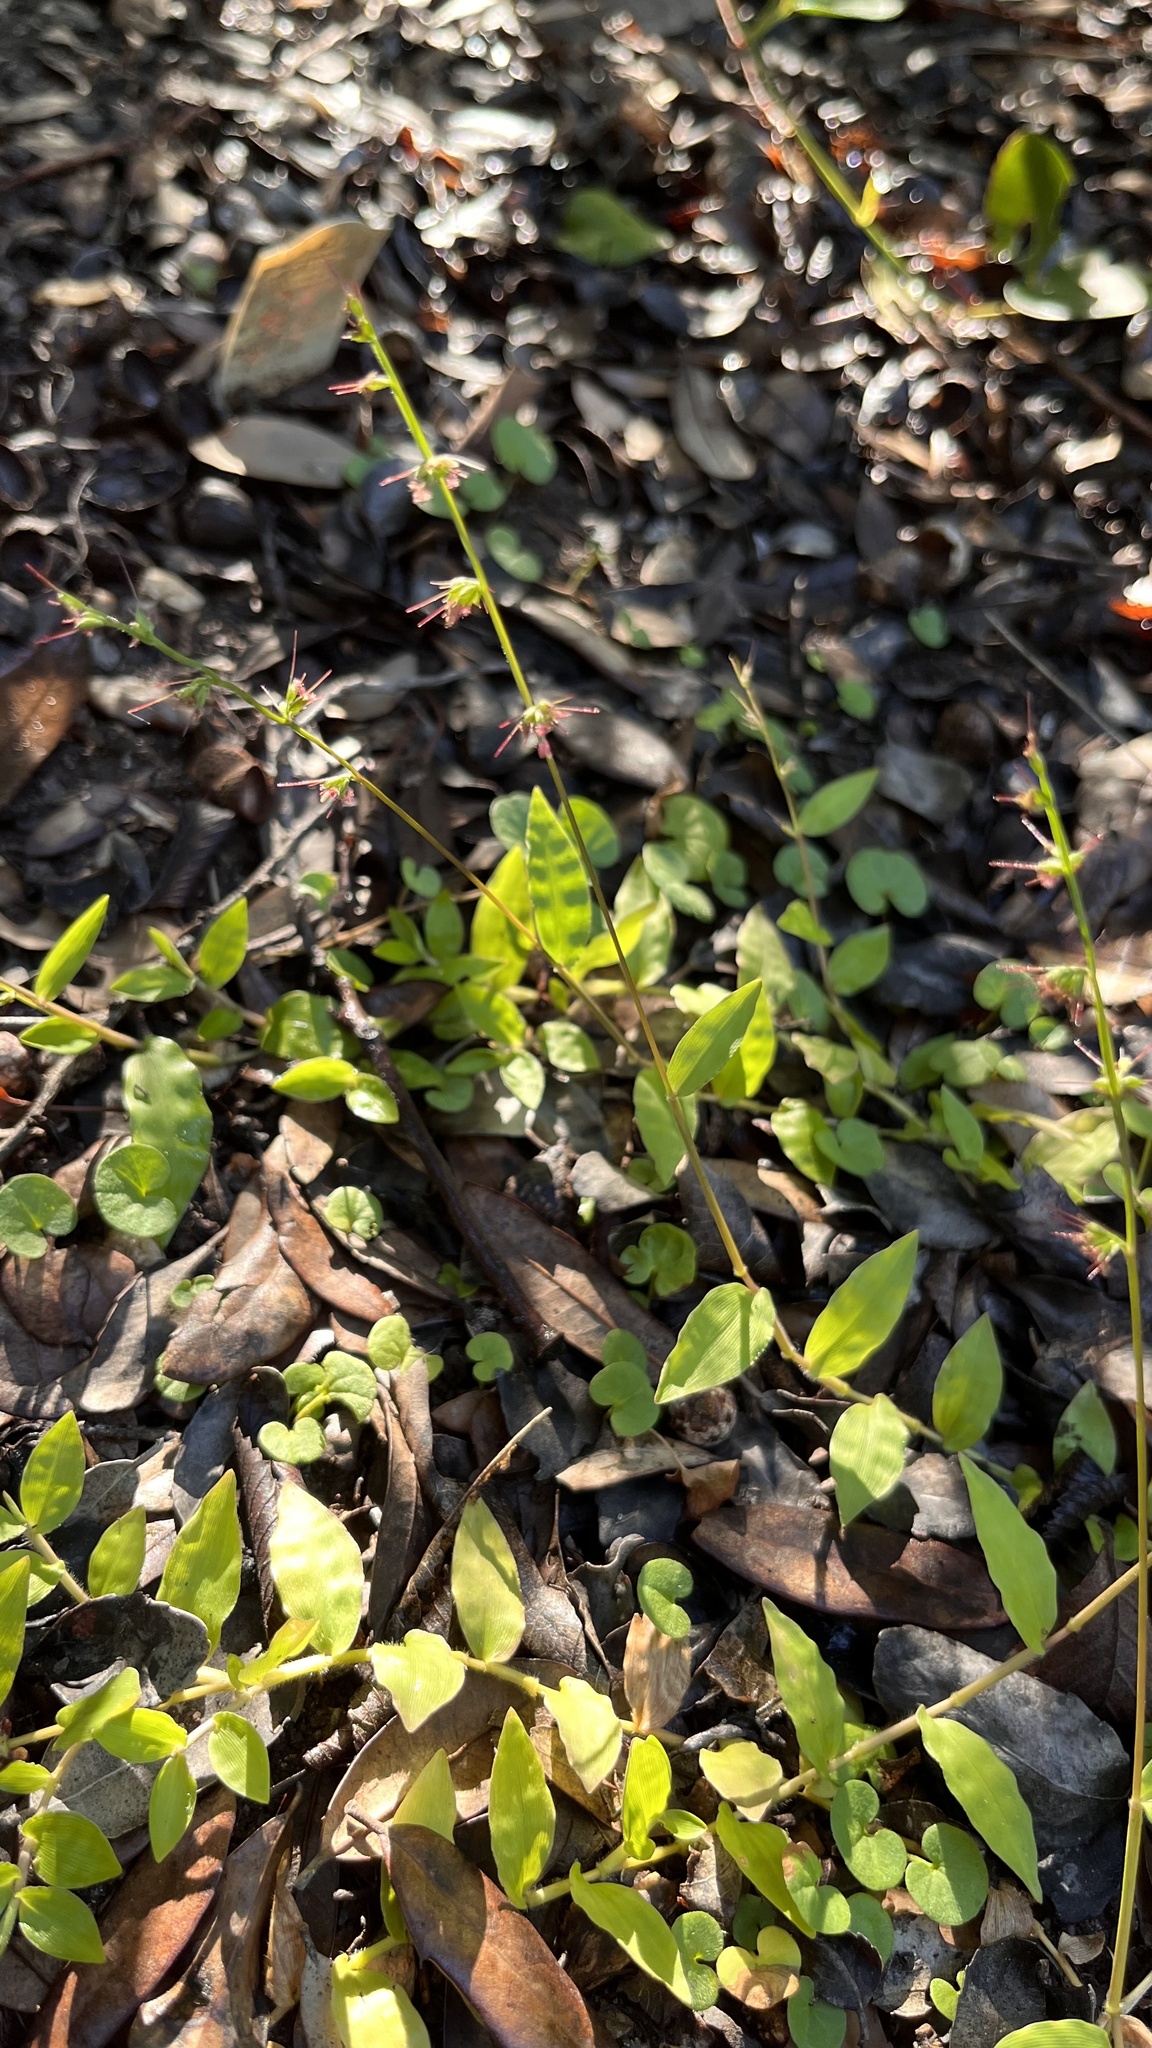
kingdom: Plantae
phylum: Tracheophyta
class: Liliopsida
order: Poales
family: Poaceae
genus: Oplismenus
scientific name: Oplismenus hirtellus
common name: Basketgrass
